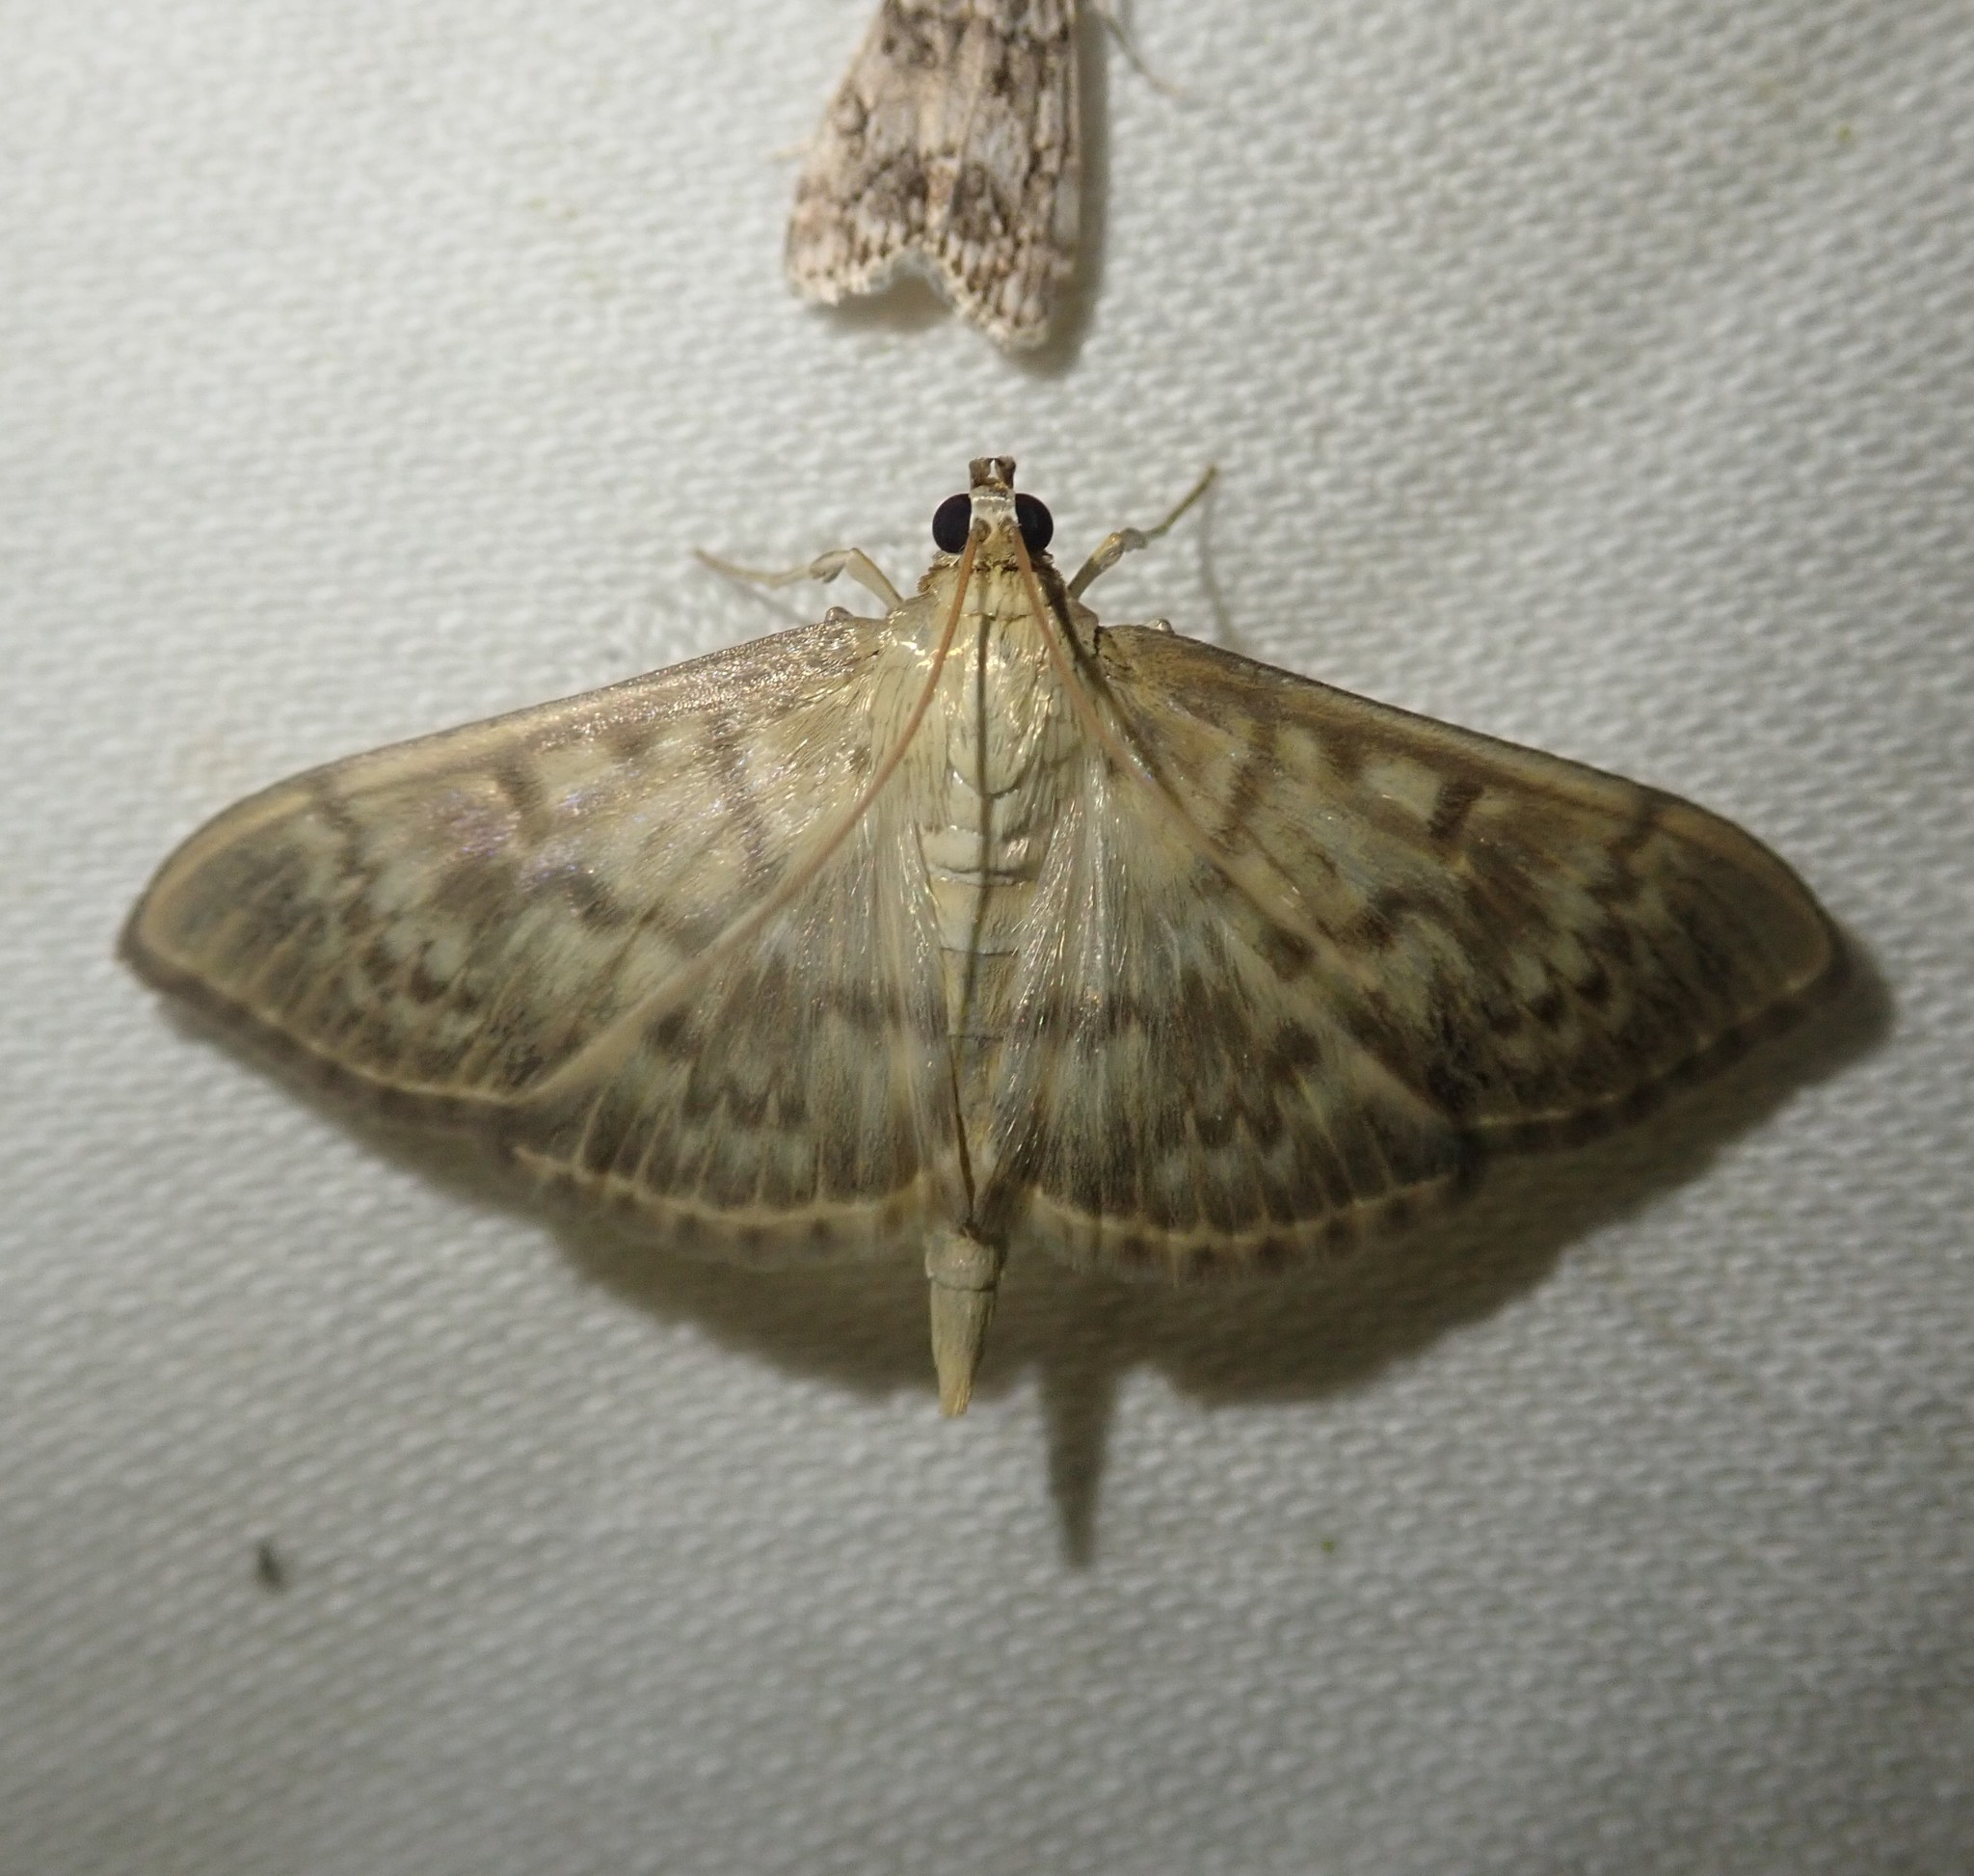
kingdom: Animalia
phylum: Arthropoda
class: Insecta
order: Lepidoptera
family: Crambidae
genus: Patania
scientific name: Patania ruralis
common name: Mother of pearl
